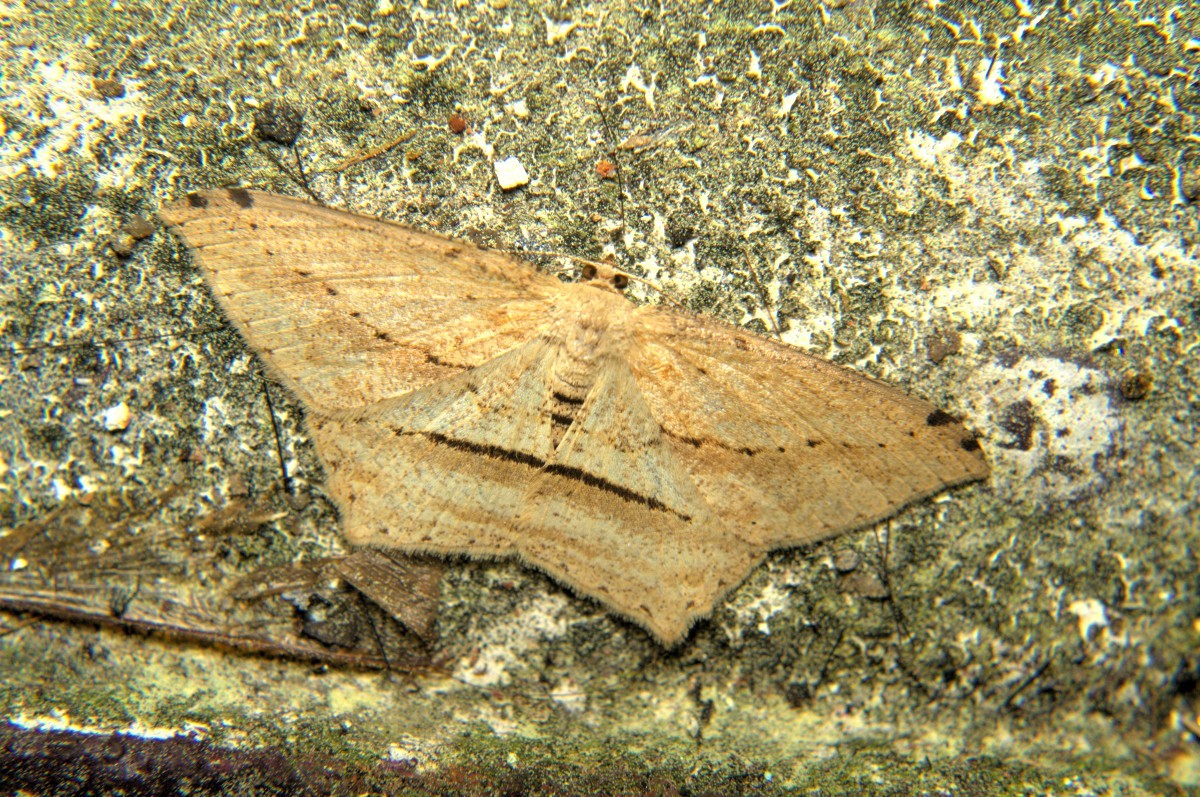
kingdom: Animalia
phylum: Arthropoda
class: Insecta
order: Lepidoptera
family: Geometridae
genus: Calletaera
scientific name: Calletaera postvittata
